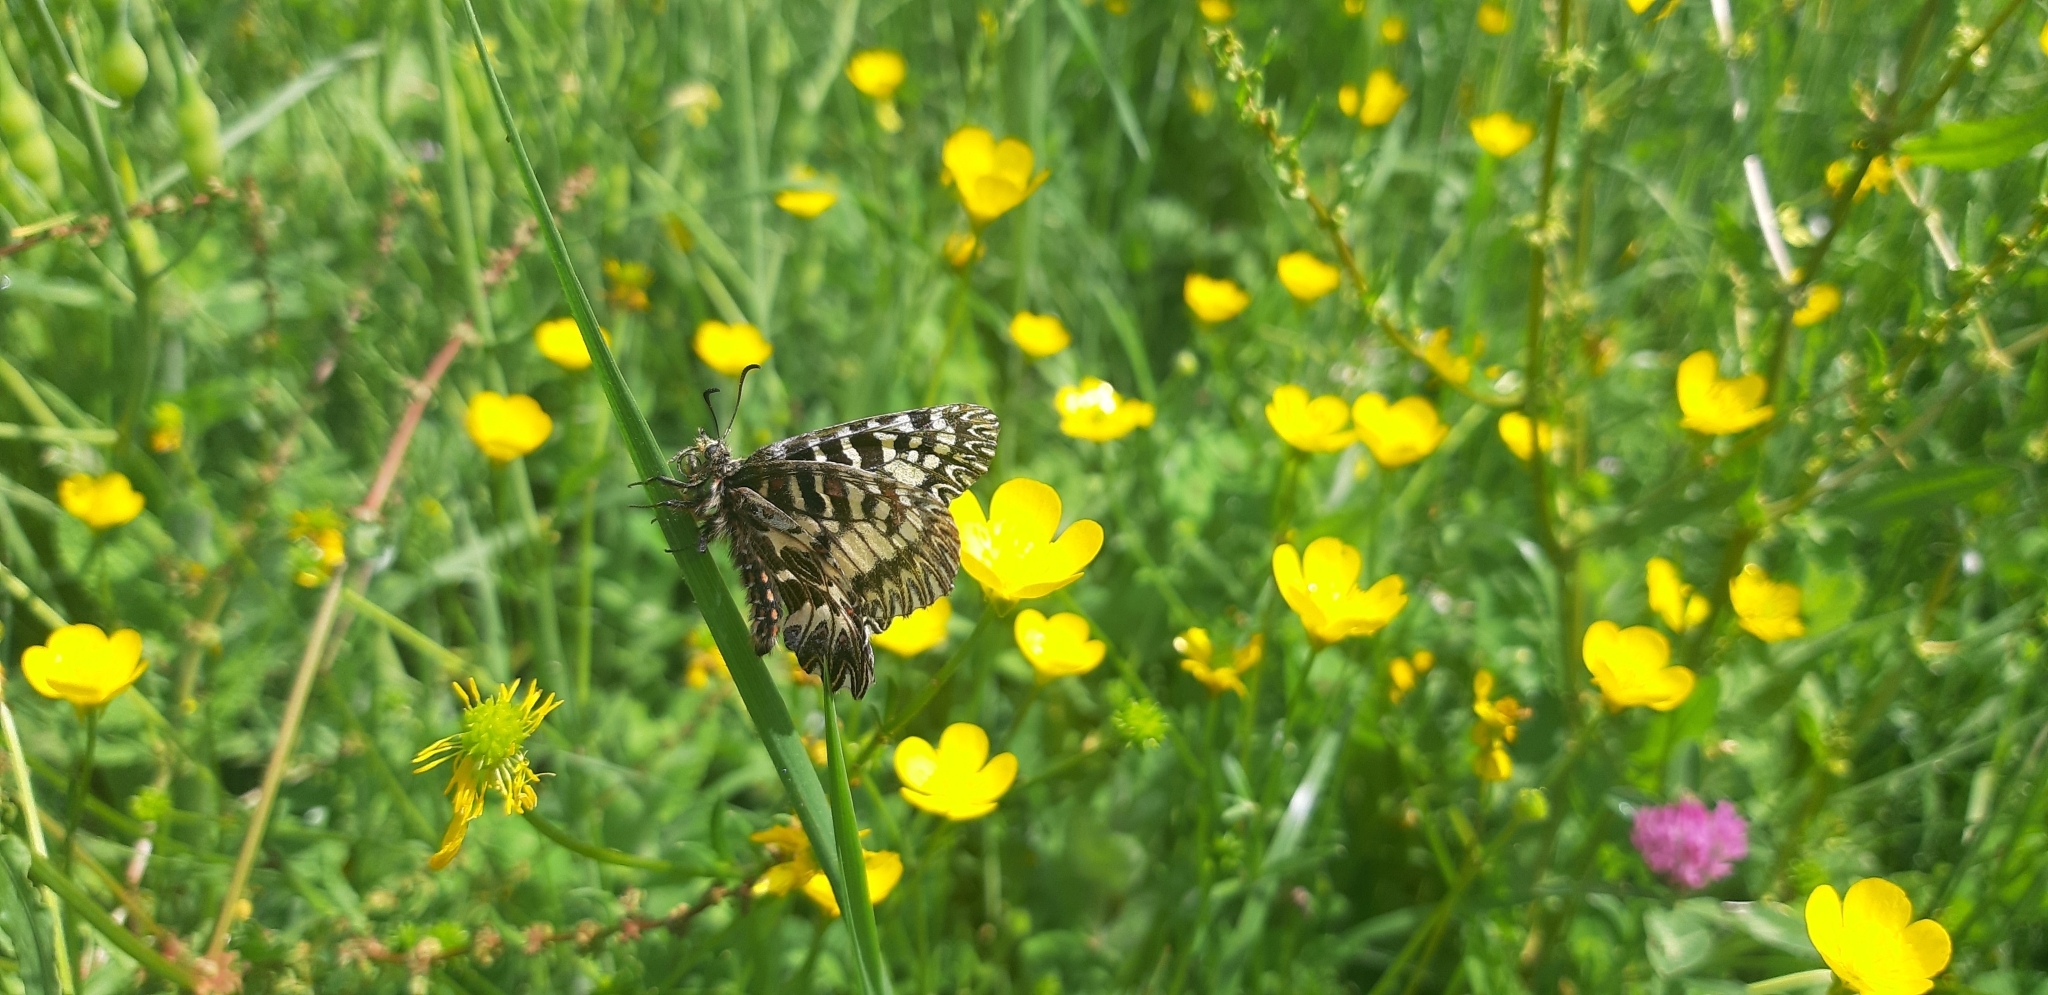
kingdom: Animalia
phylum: Arthropoda
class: Insecta
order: Lepidoptera
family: Papilionidae
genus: Zerynthia
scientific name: Zerynthia cassandra
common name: Italian festoon
